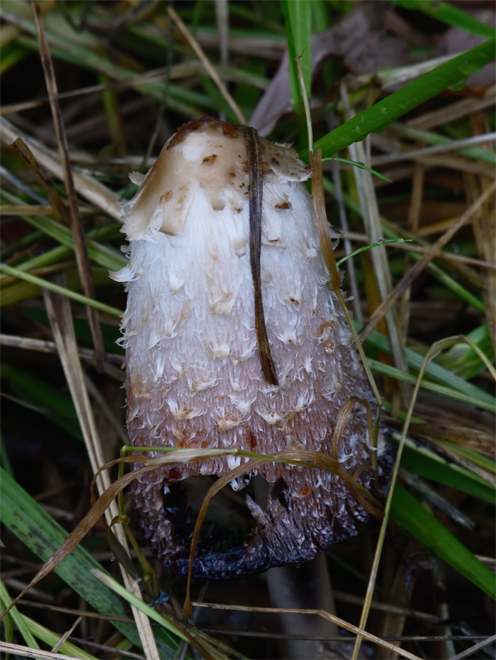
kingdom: Fungi
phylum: Basidiomycota
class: Agaricomycetes
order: Agaricales
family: Agaricaceae
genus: Coprinus
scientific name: Coprinus comatus
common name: Lawyer's wig
